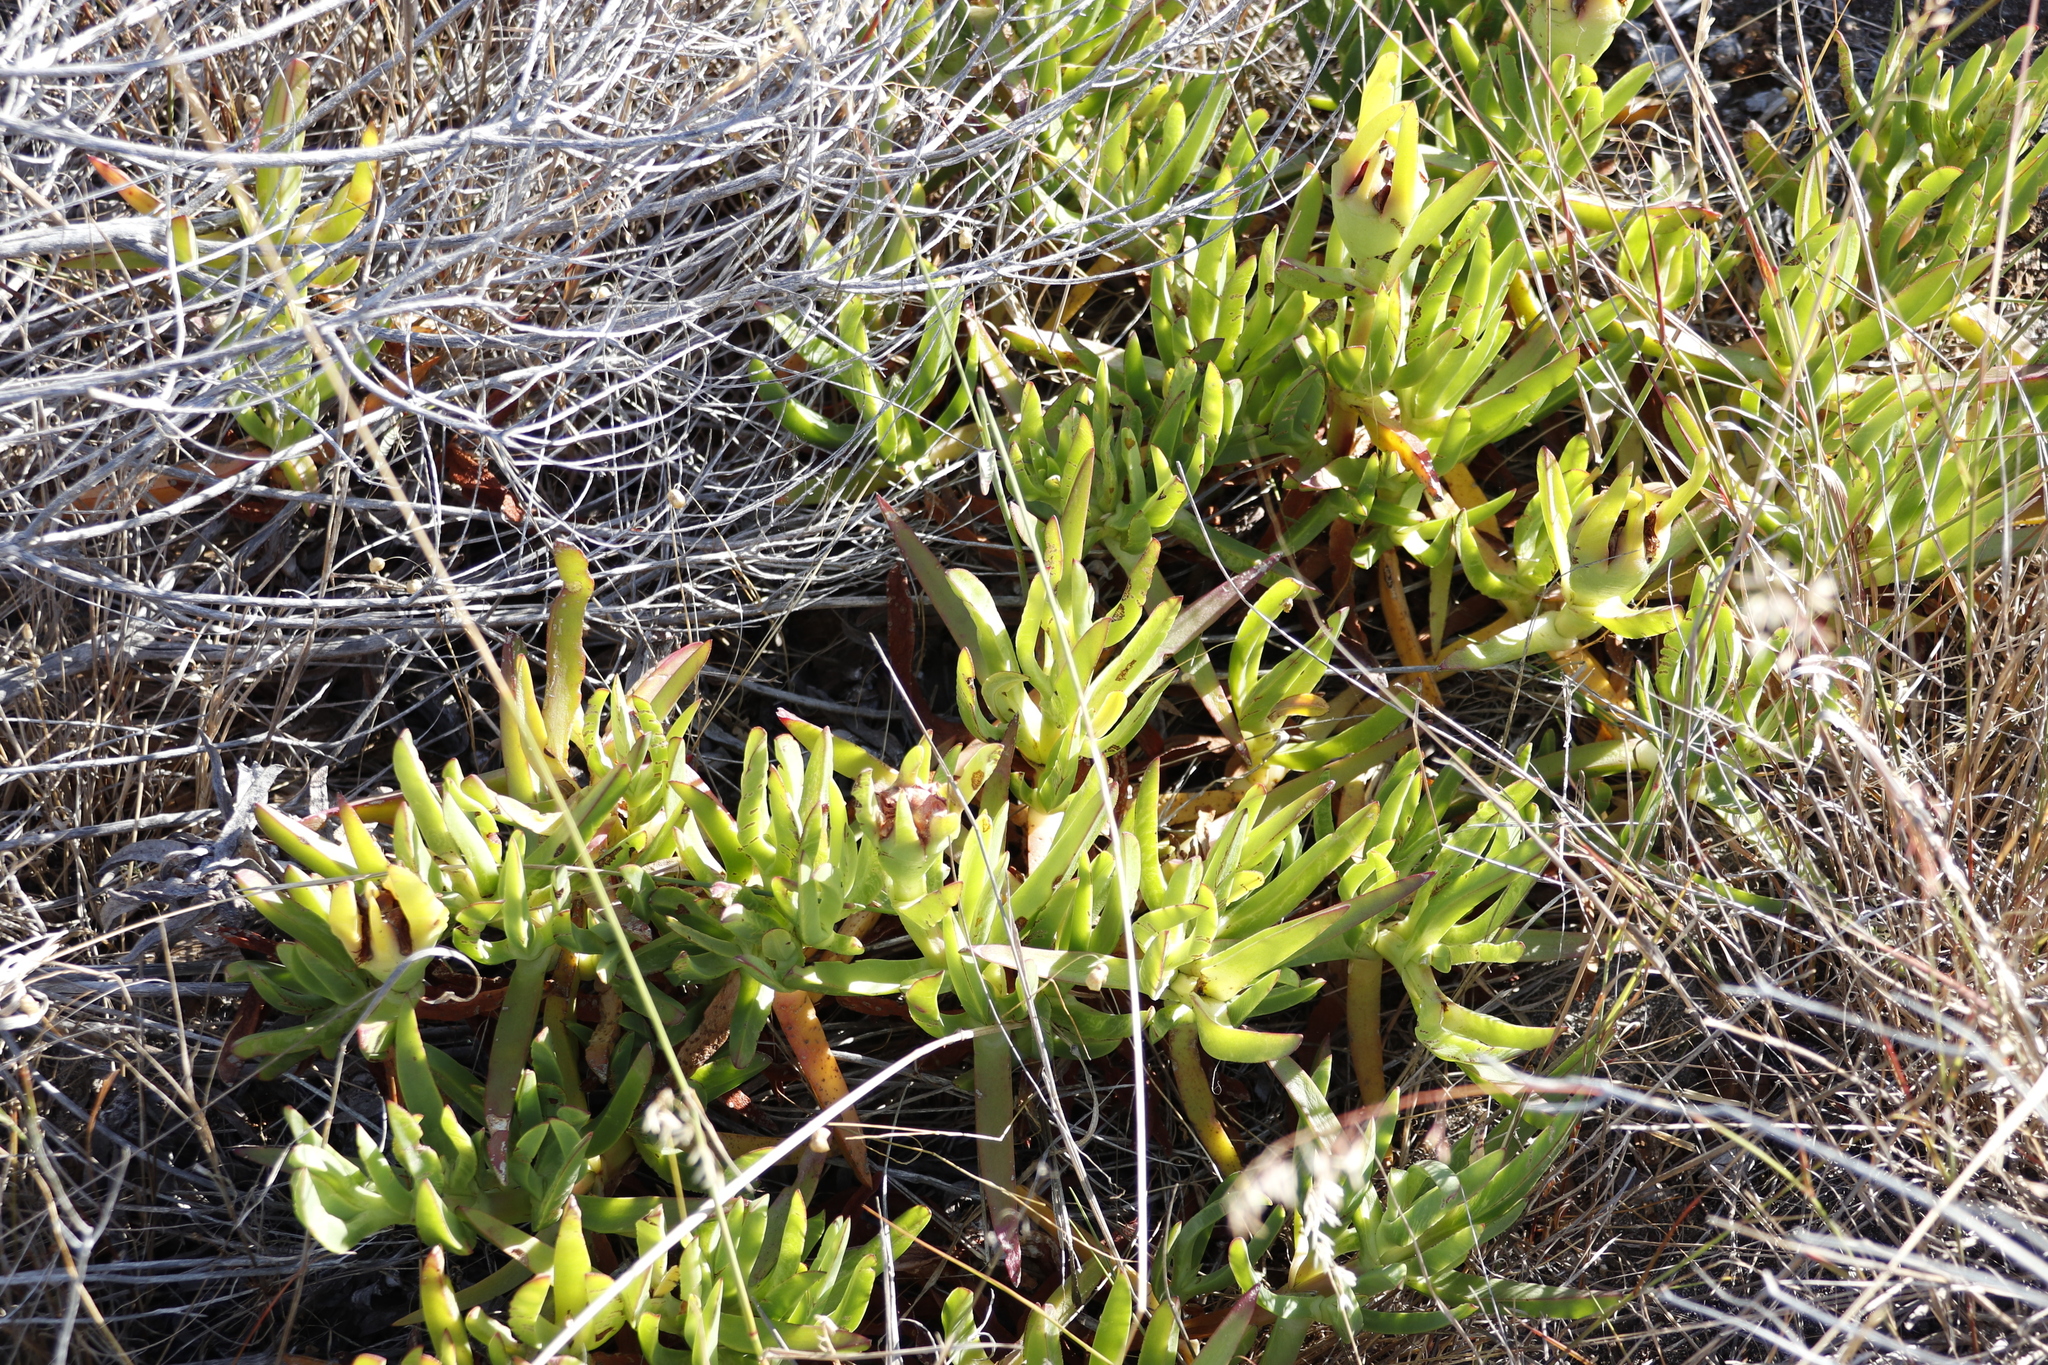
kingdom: Plantae
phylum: Tracheophyta
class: Magnoliopsida
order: Caryophyllales
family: Aizoaceae
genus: Carpobrotus
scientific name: Carpobrotus edulis
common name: Hottentot-fig
